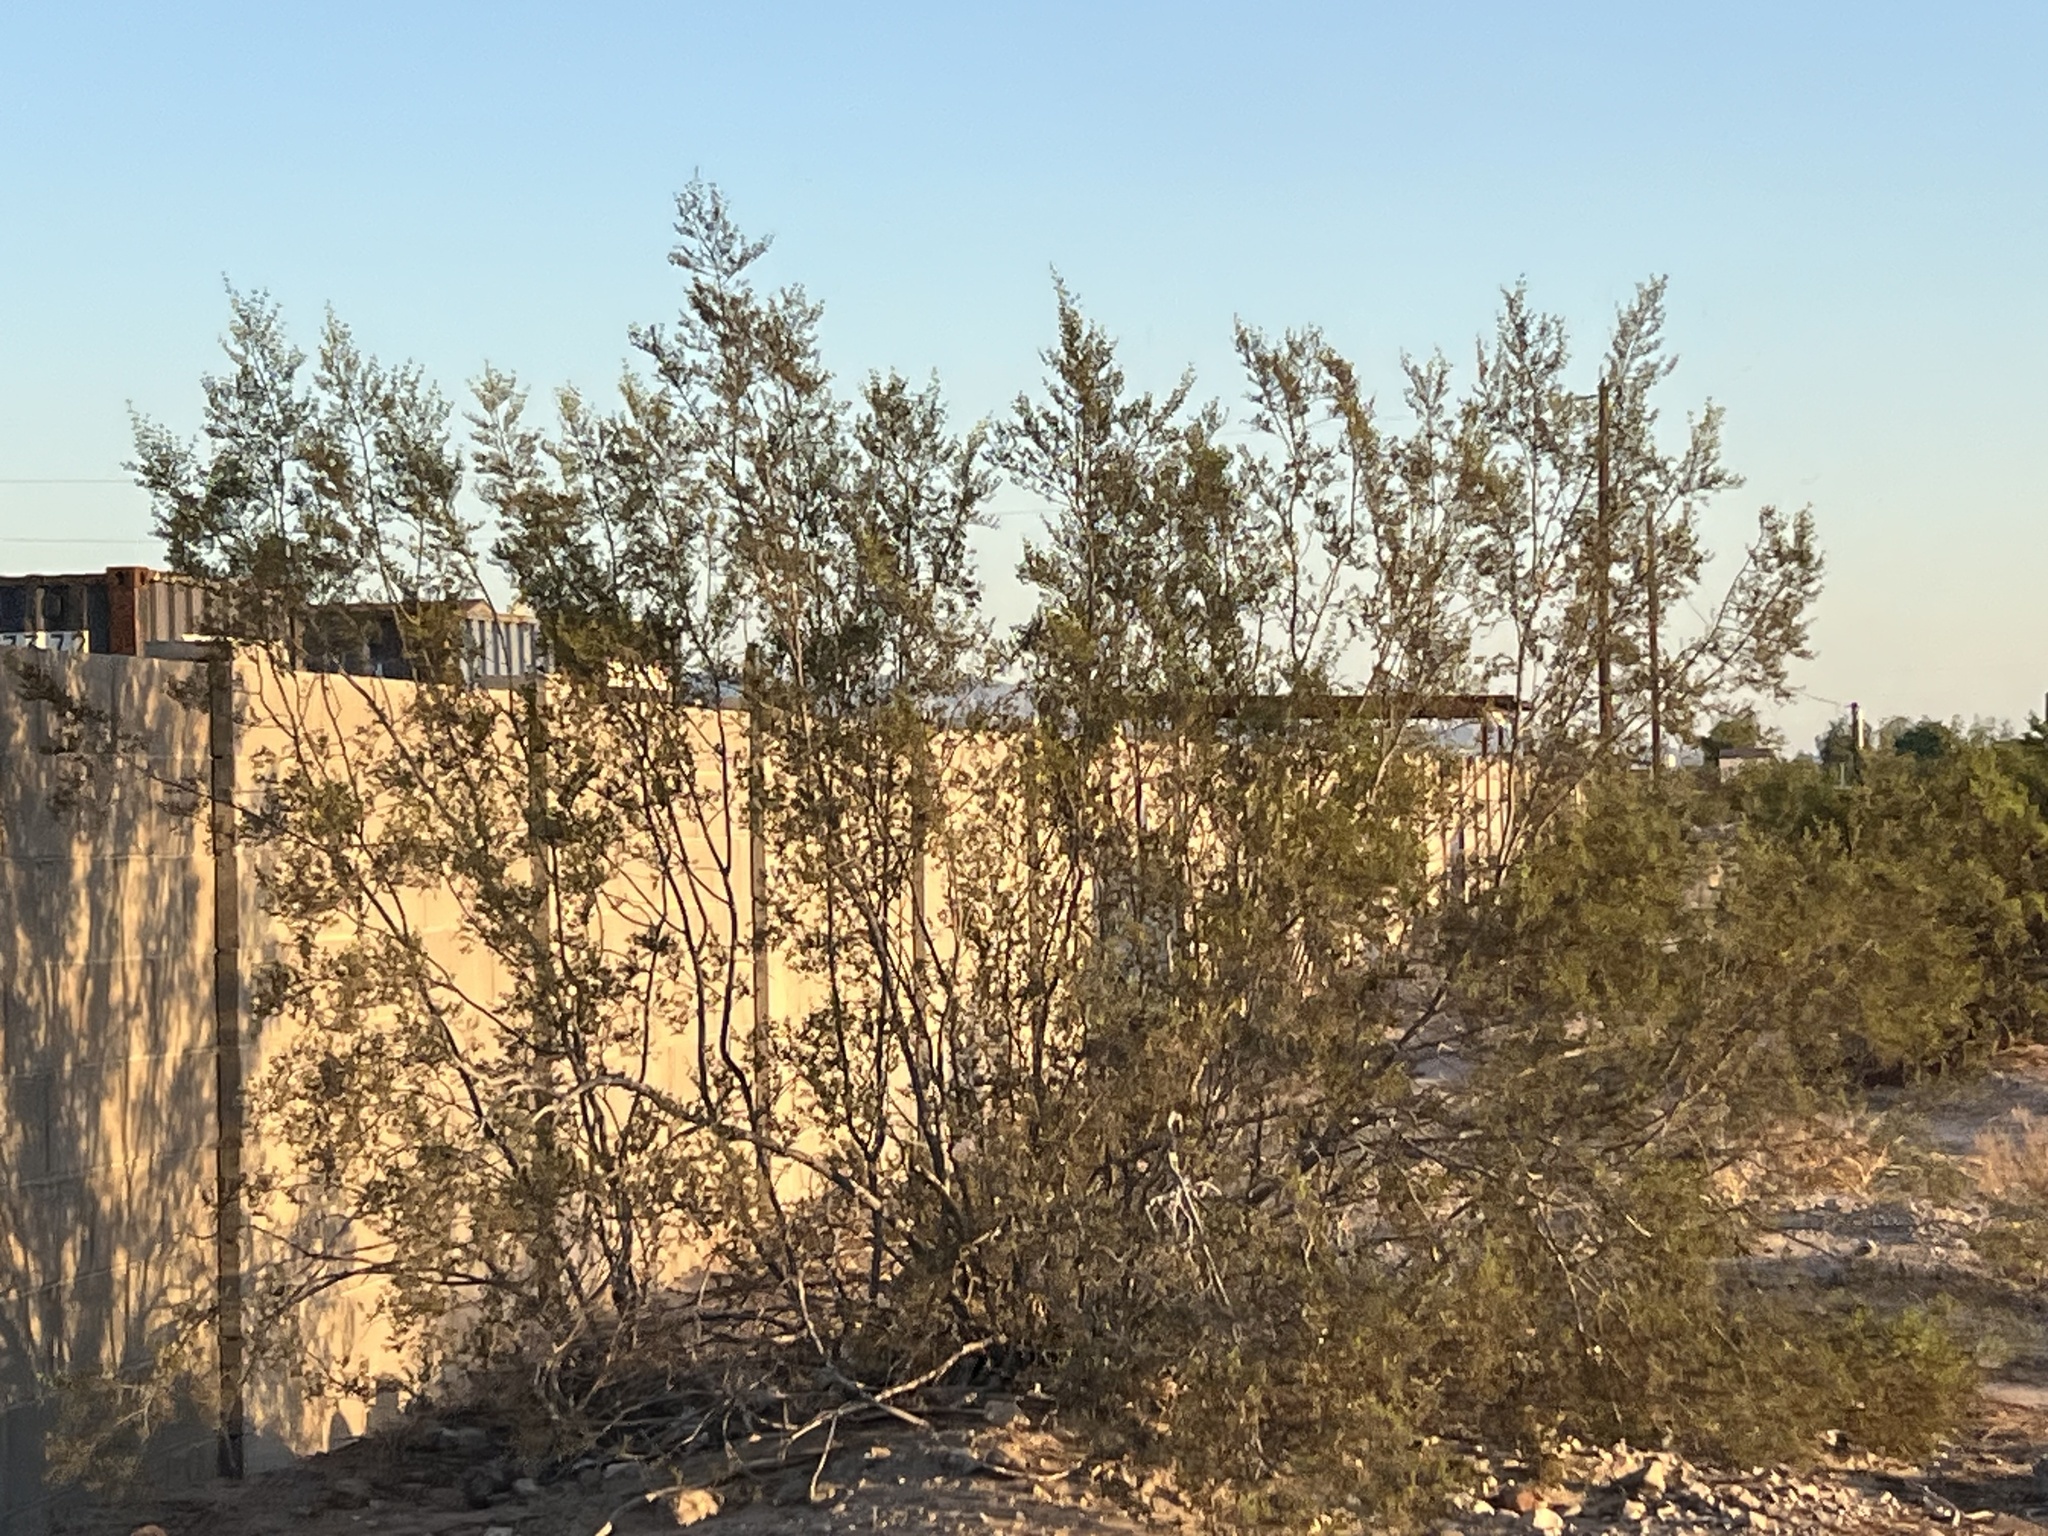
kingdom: Plantae
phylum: Tracheophyta
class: Magnoliopsida
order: Zygophyllales
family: Zygophyllaceae
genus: Larrea
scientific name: Larrea tridentata
